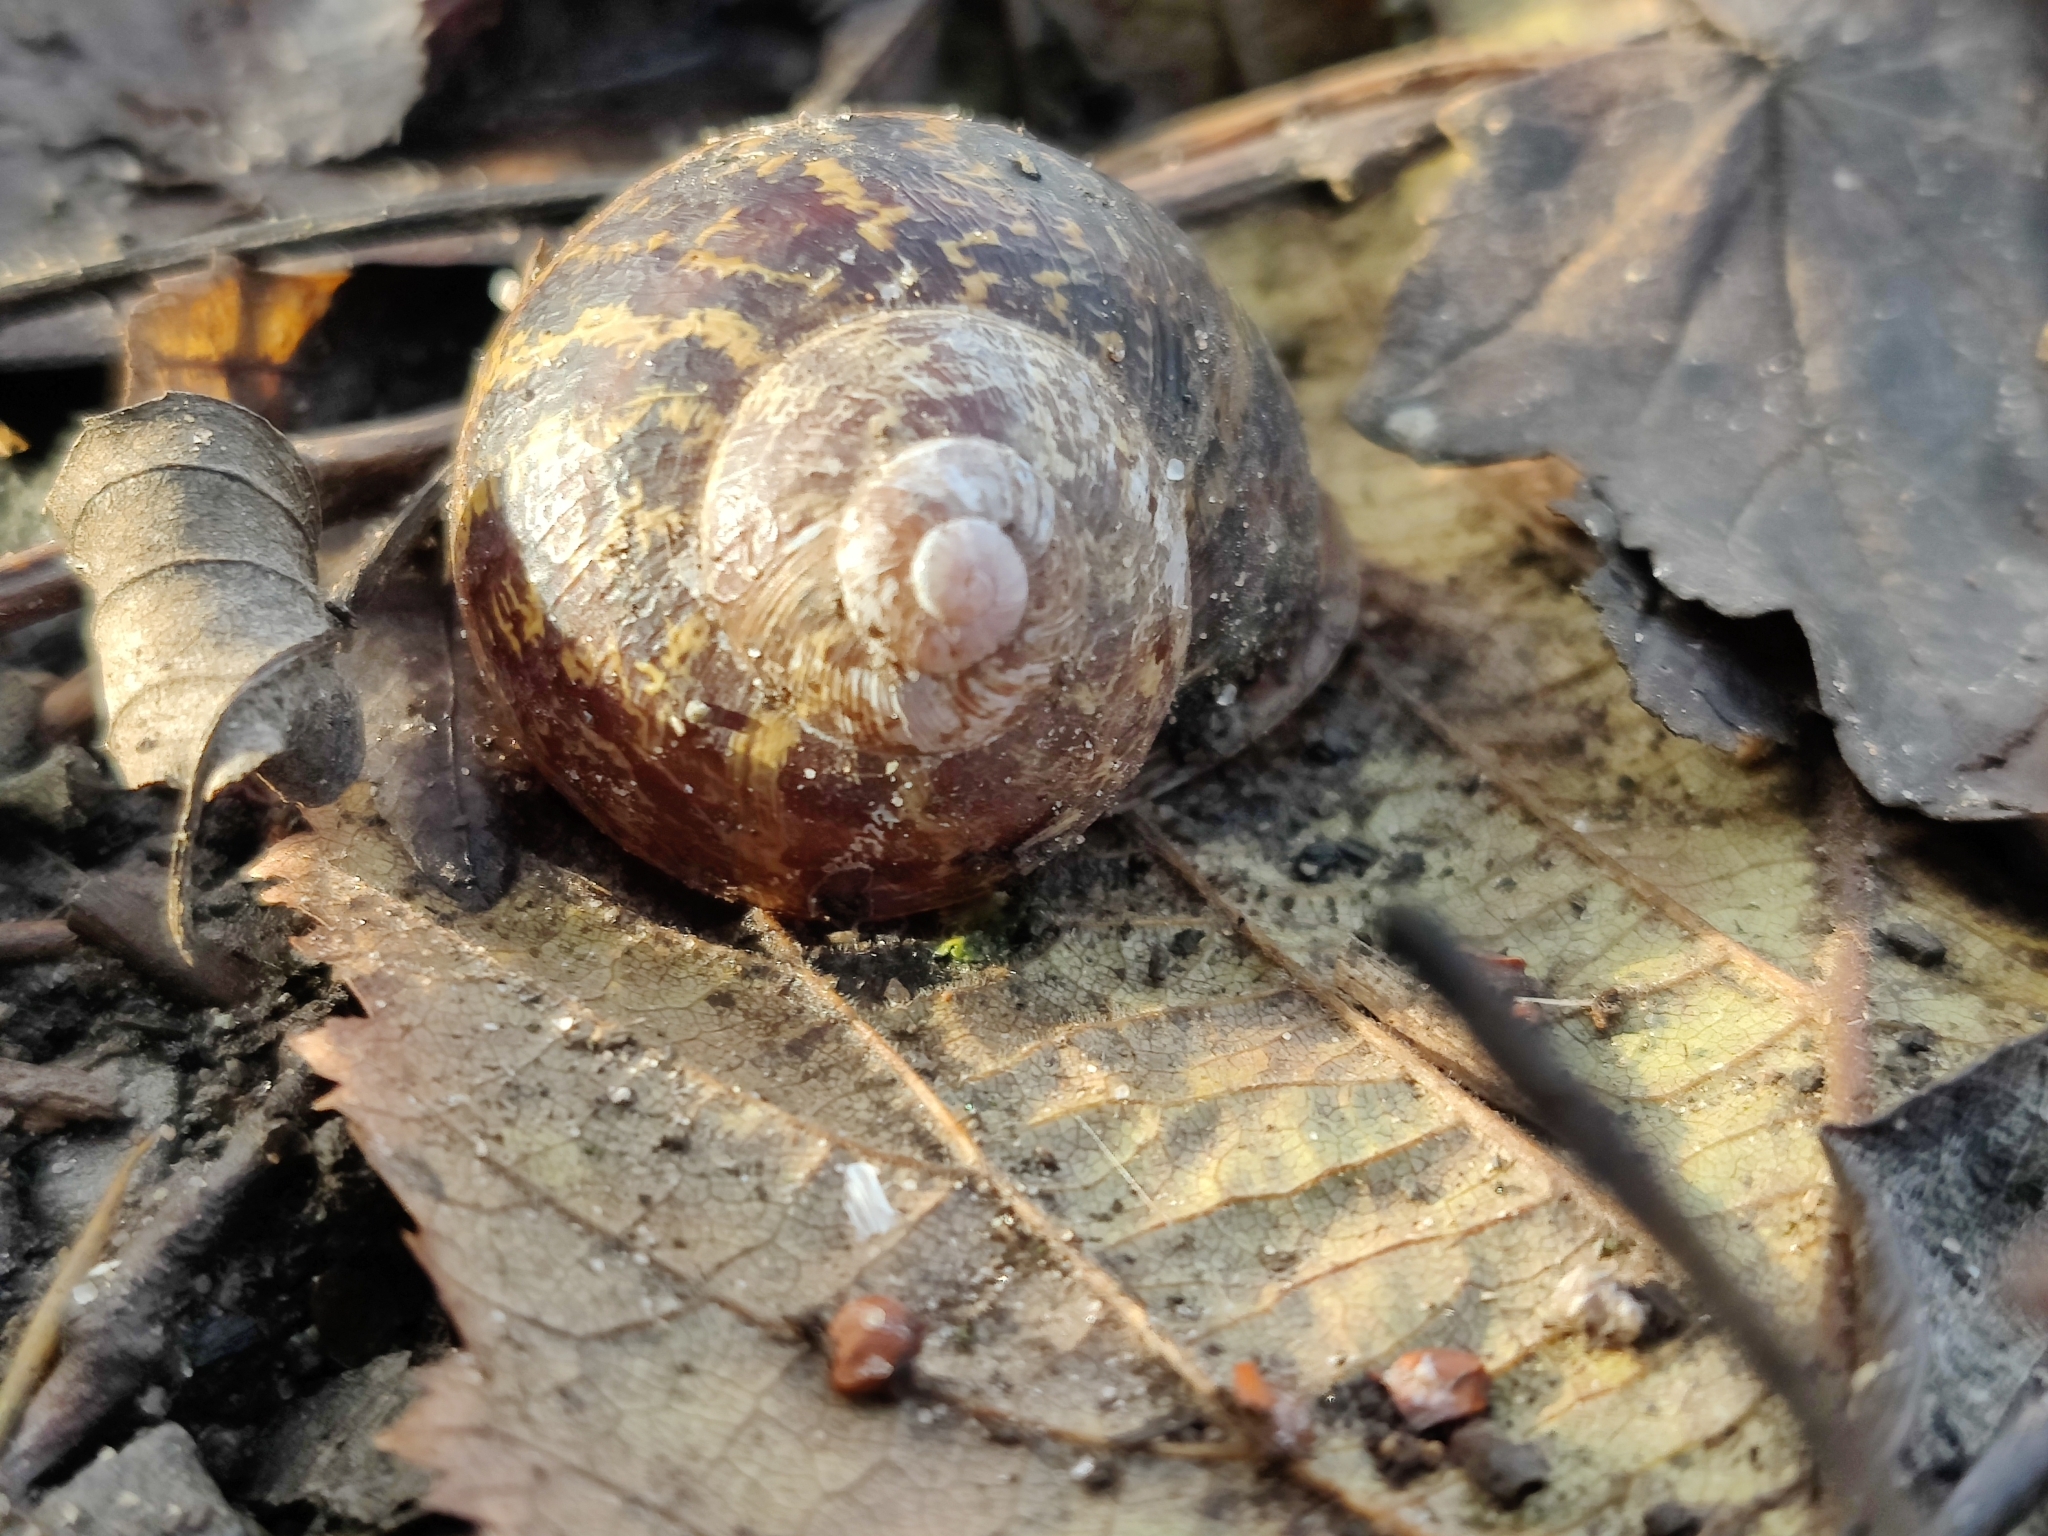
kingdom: Animalia
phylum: Mollusca
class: Gastropoda
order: Stylommatophora
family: Helicidae
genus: Cornu
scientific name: Cornu aspersum
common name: Brown garden snail
